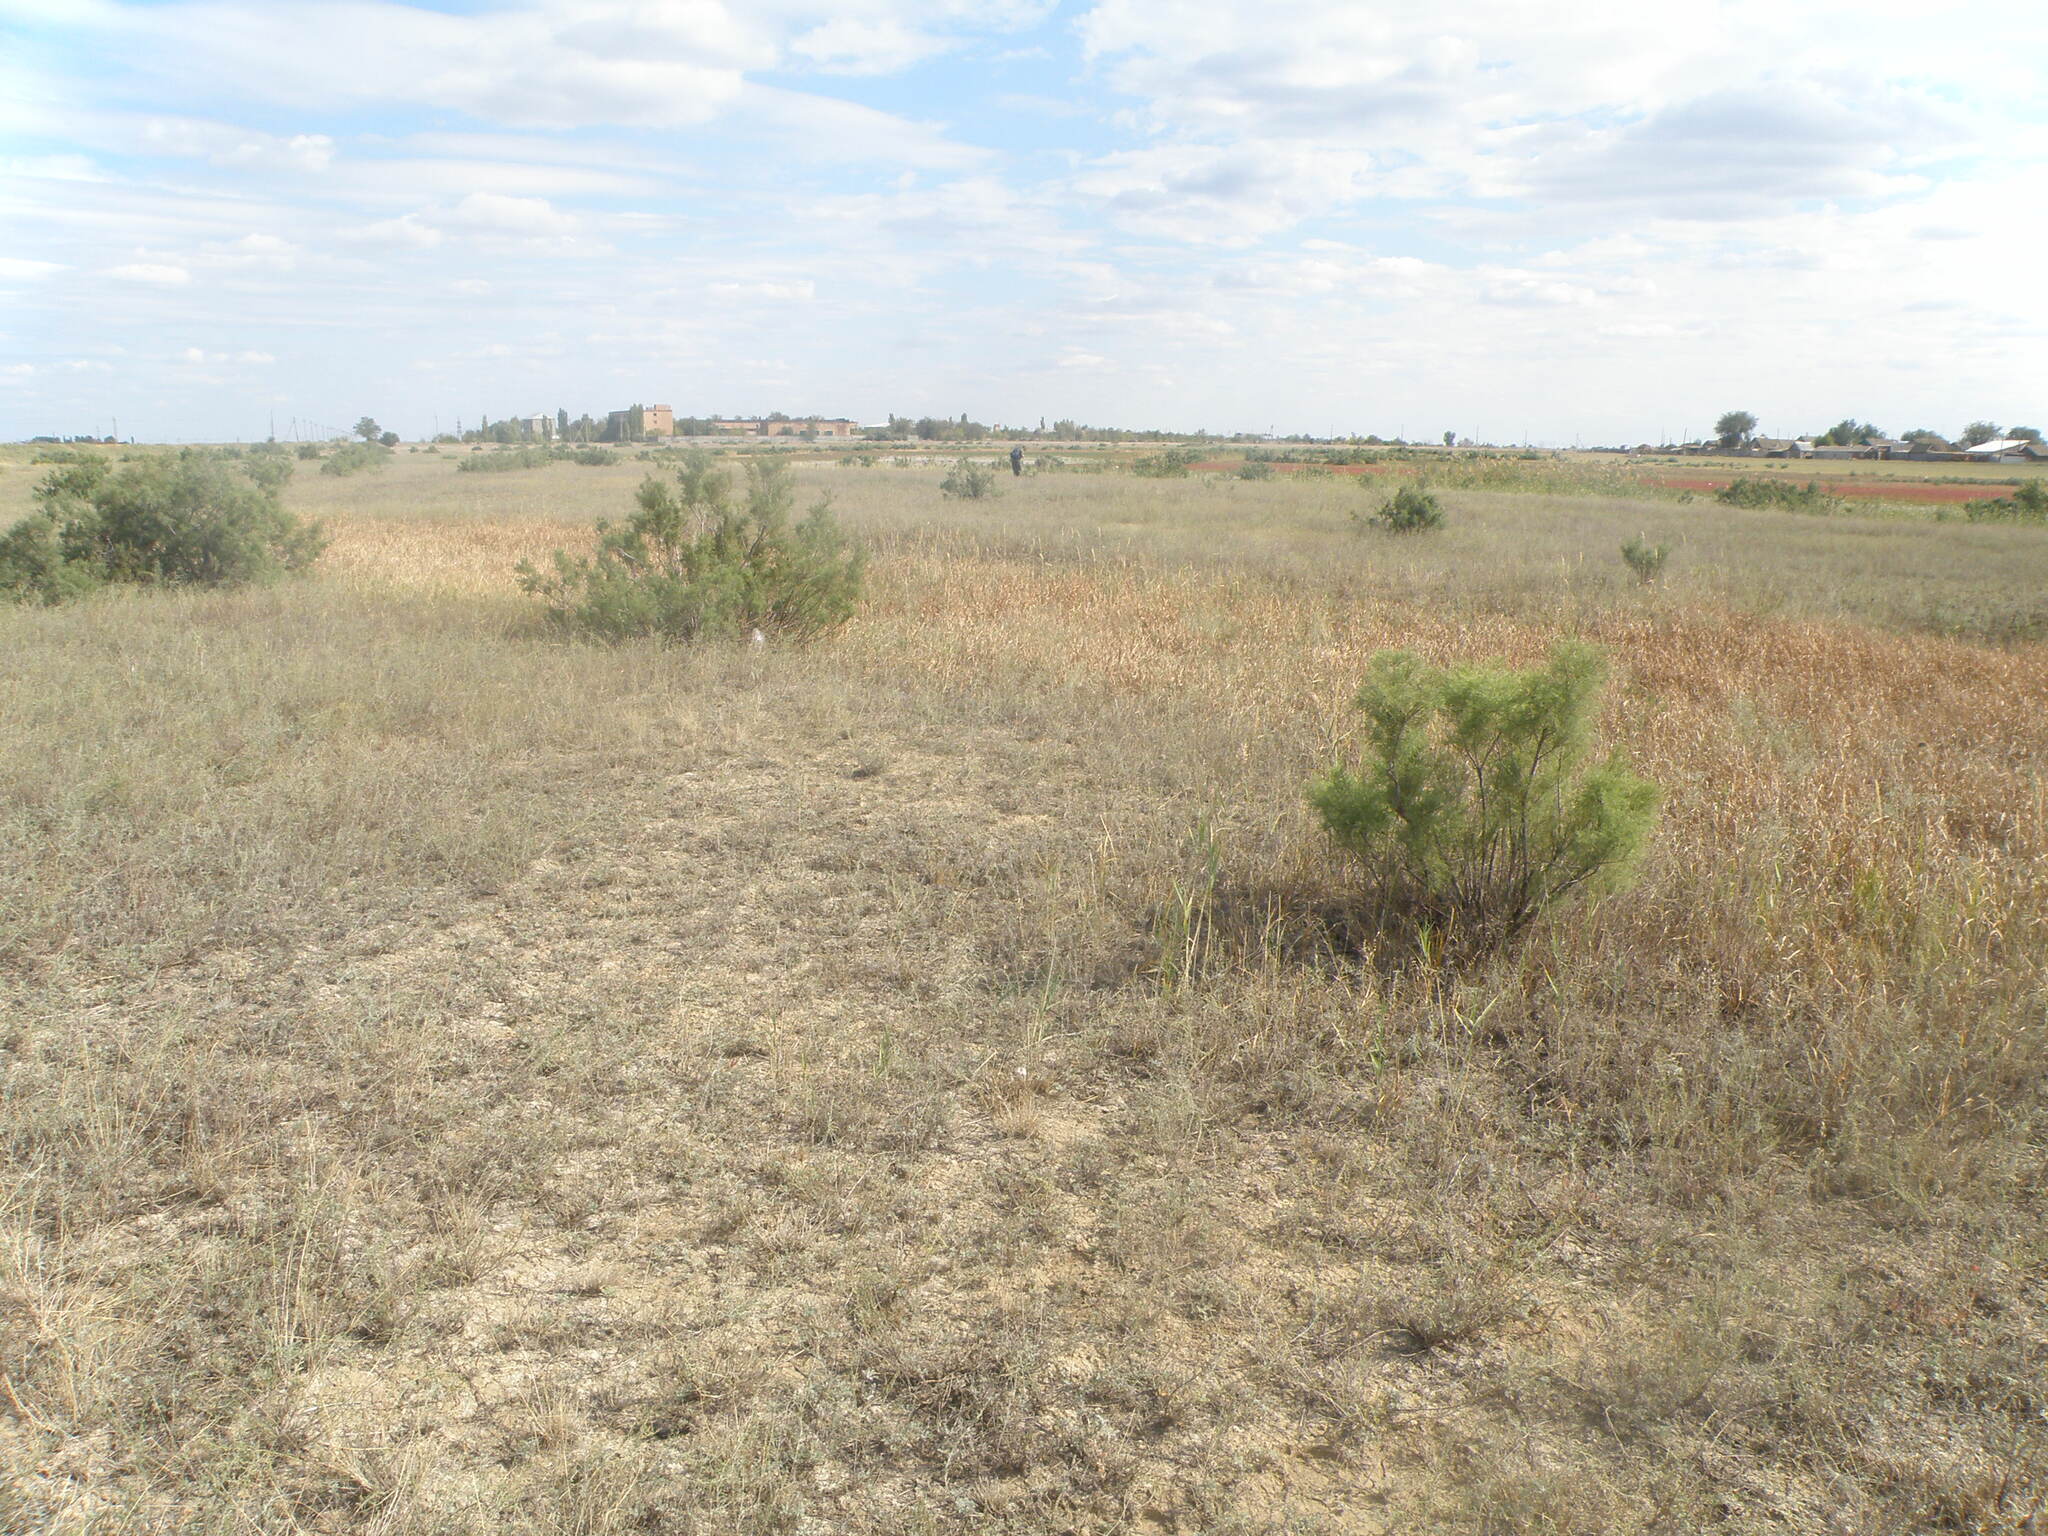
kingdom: Plantae
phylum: Tracheophyta
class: Magnoliopsida
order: Caryophyllales
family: Tamaricaceae
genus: Tamarix
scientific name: Tamarix ramosissima
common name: Pink tamarisk
